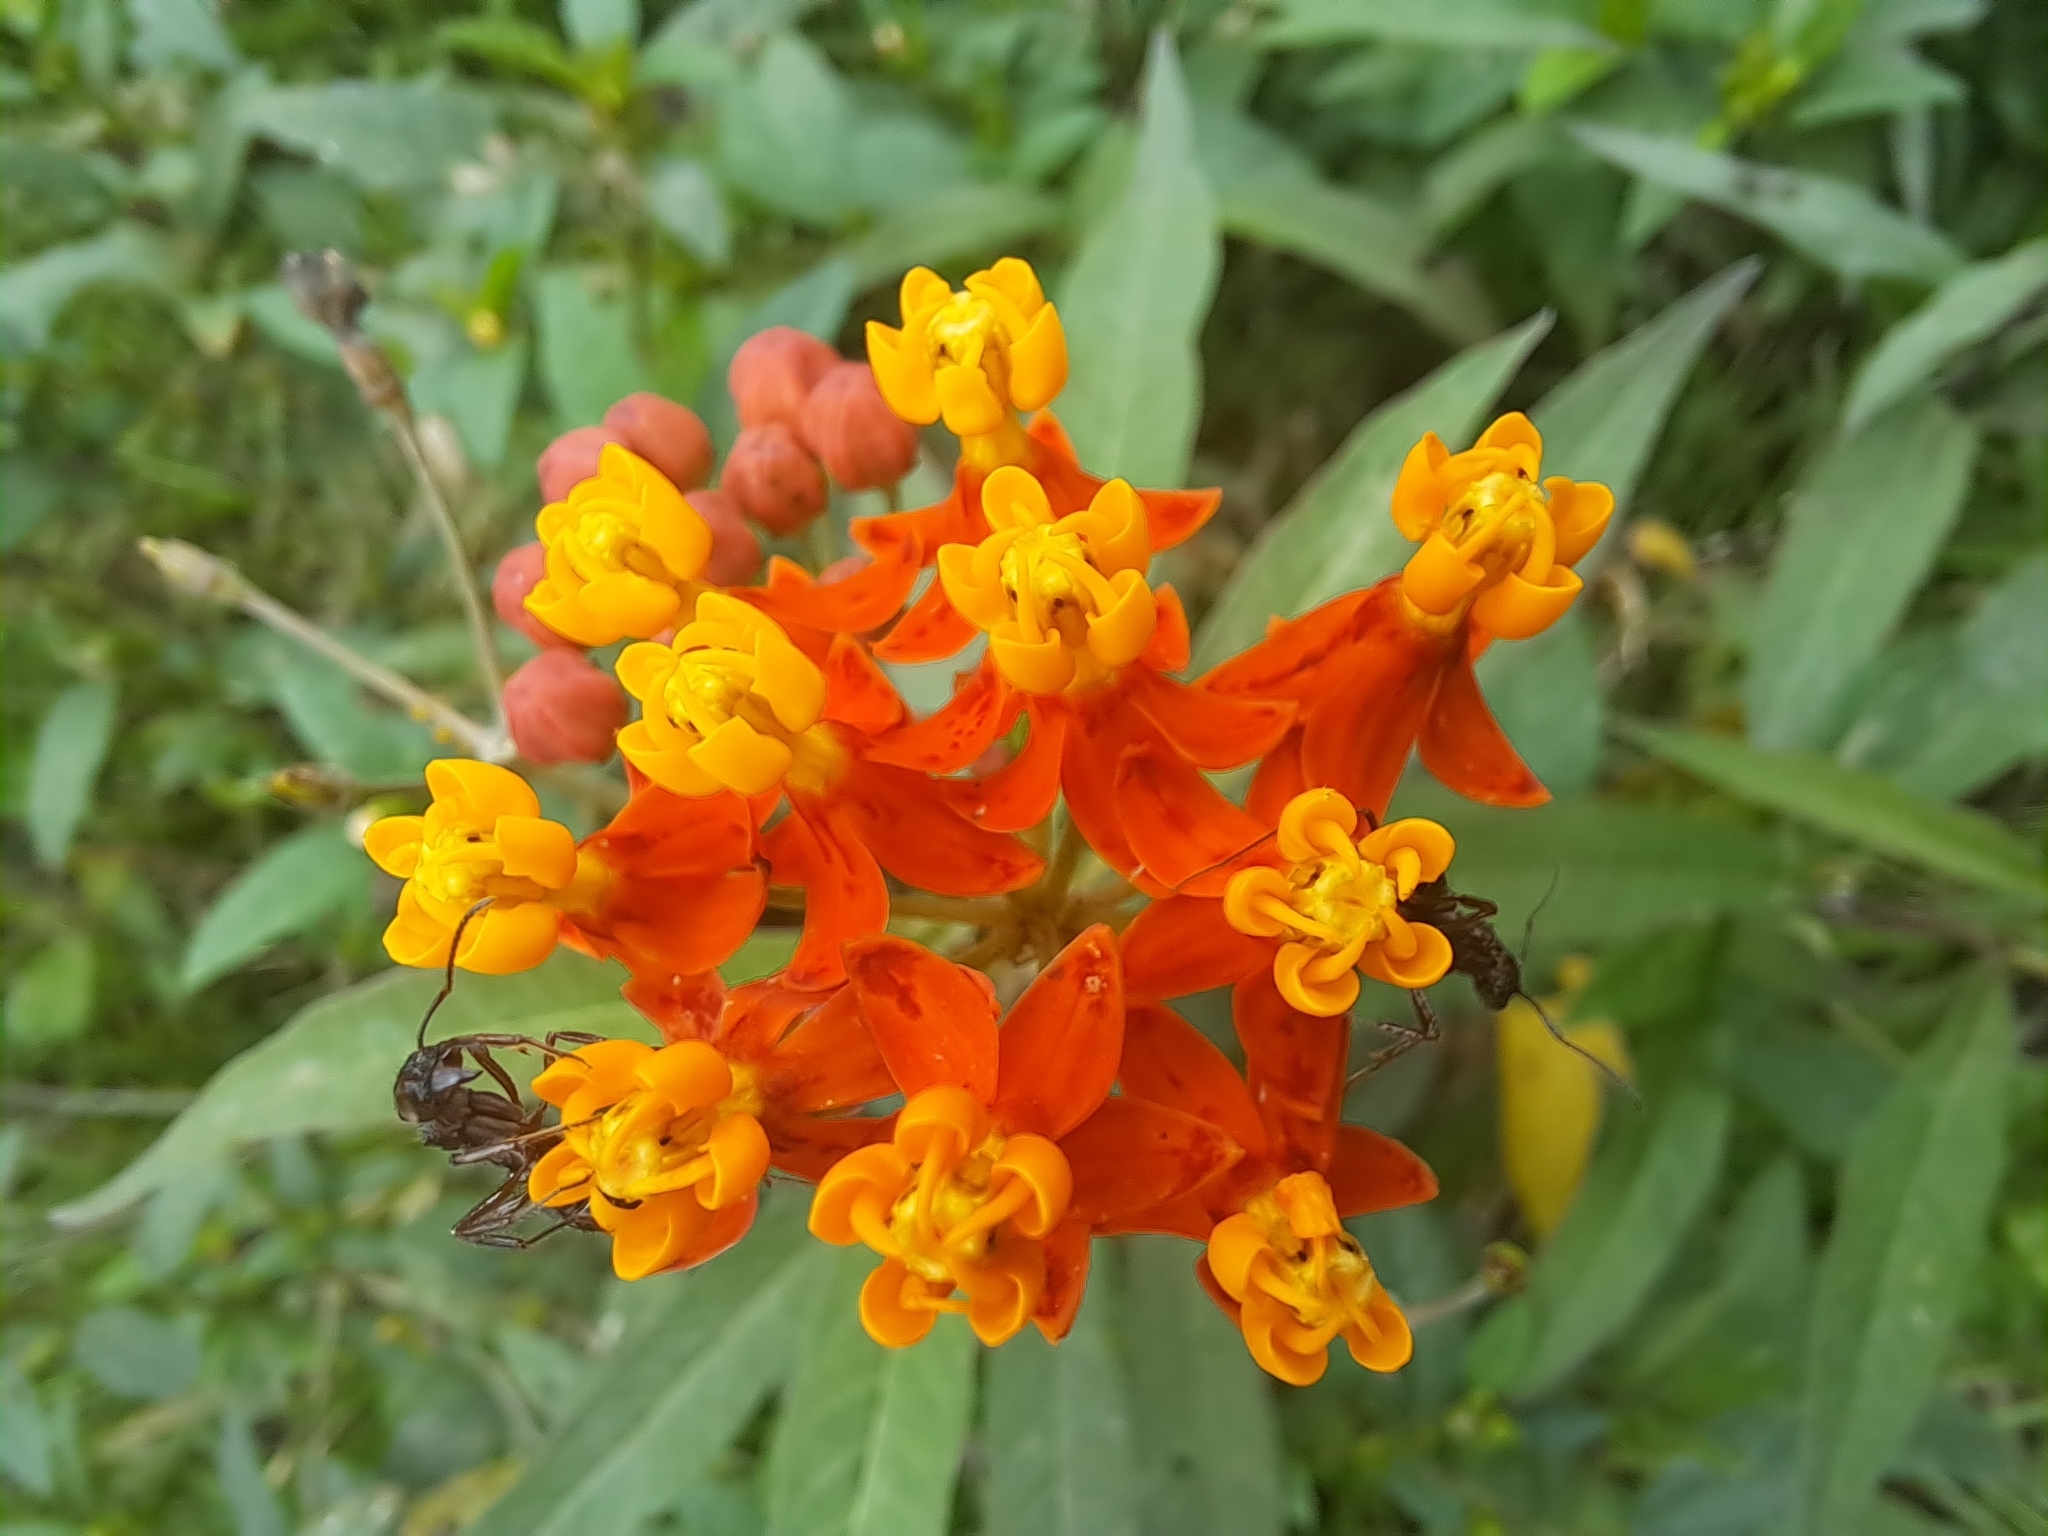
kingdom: Plantae
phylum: Tracheophyta
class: Magnoliopsida
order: Gentianales
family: Apocynaceae
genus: Asclepias
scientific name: Asclepias curassavica
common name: Bloodflower
